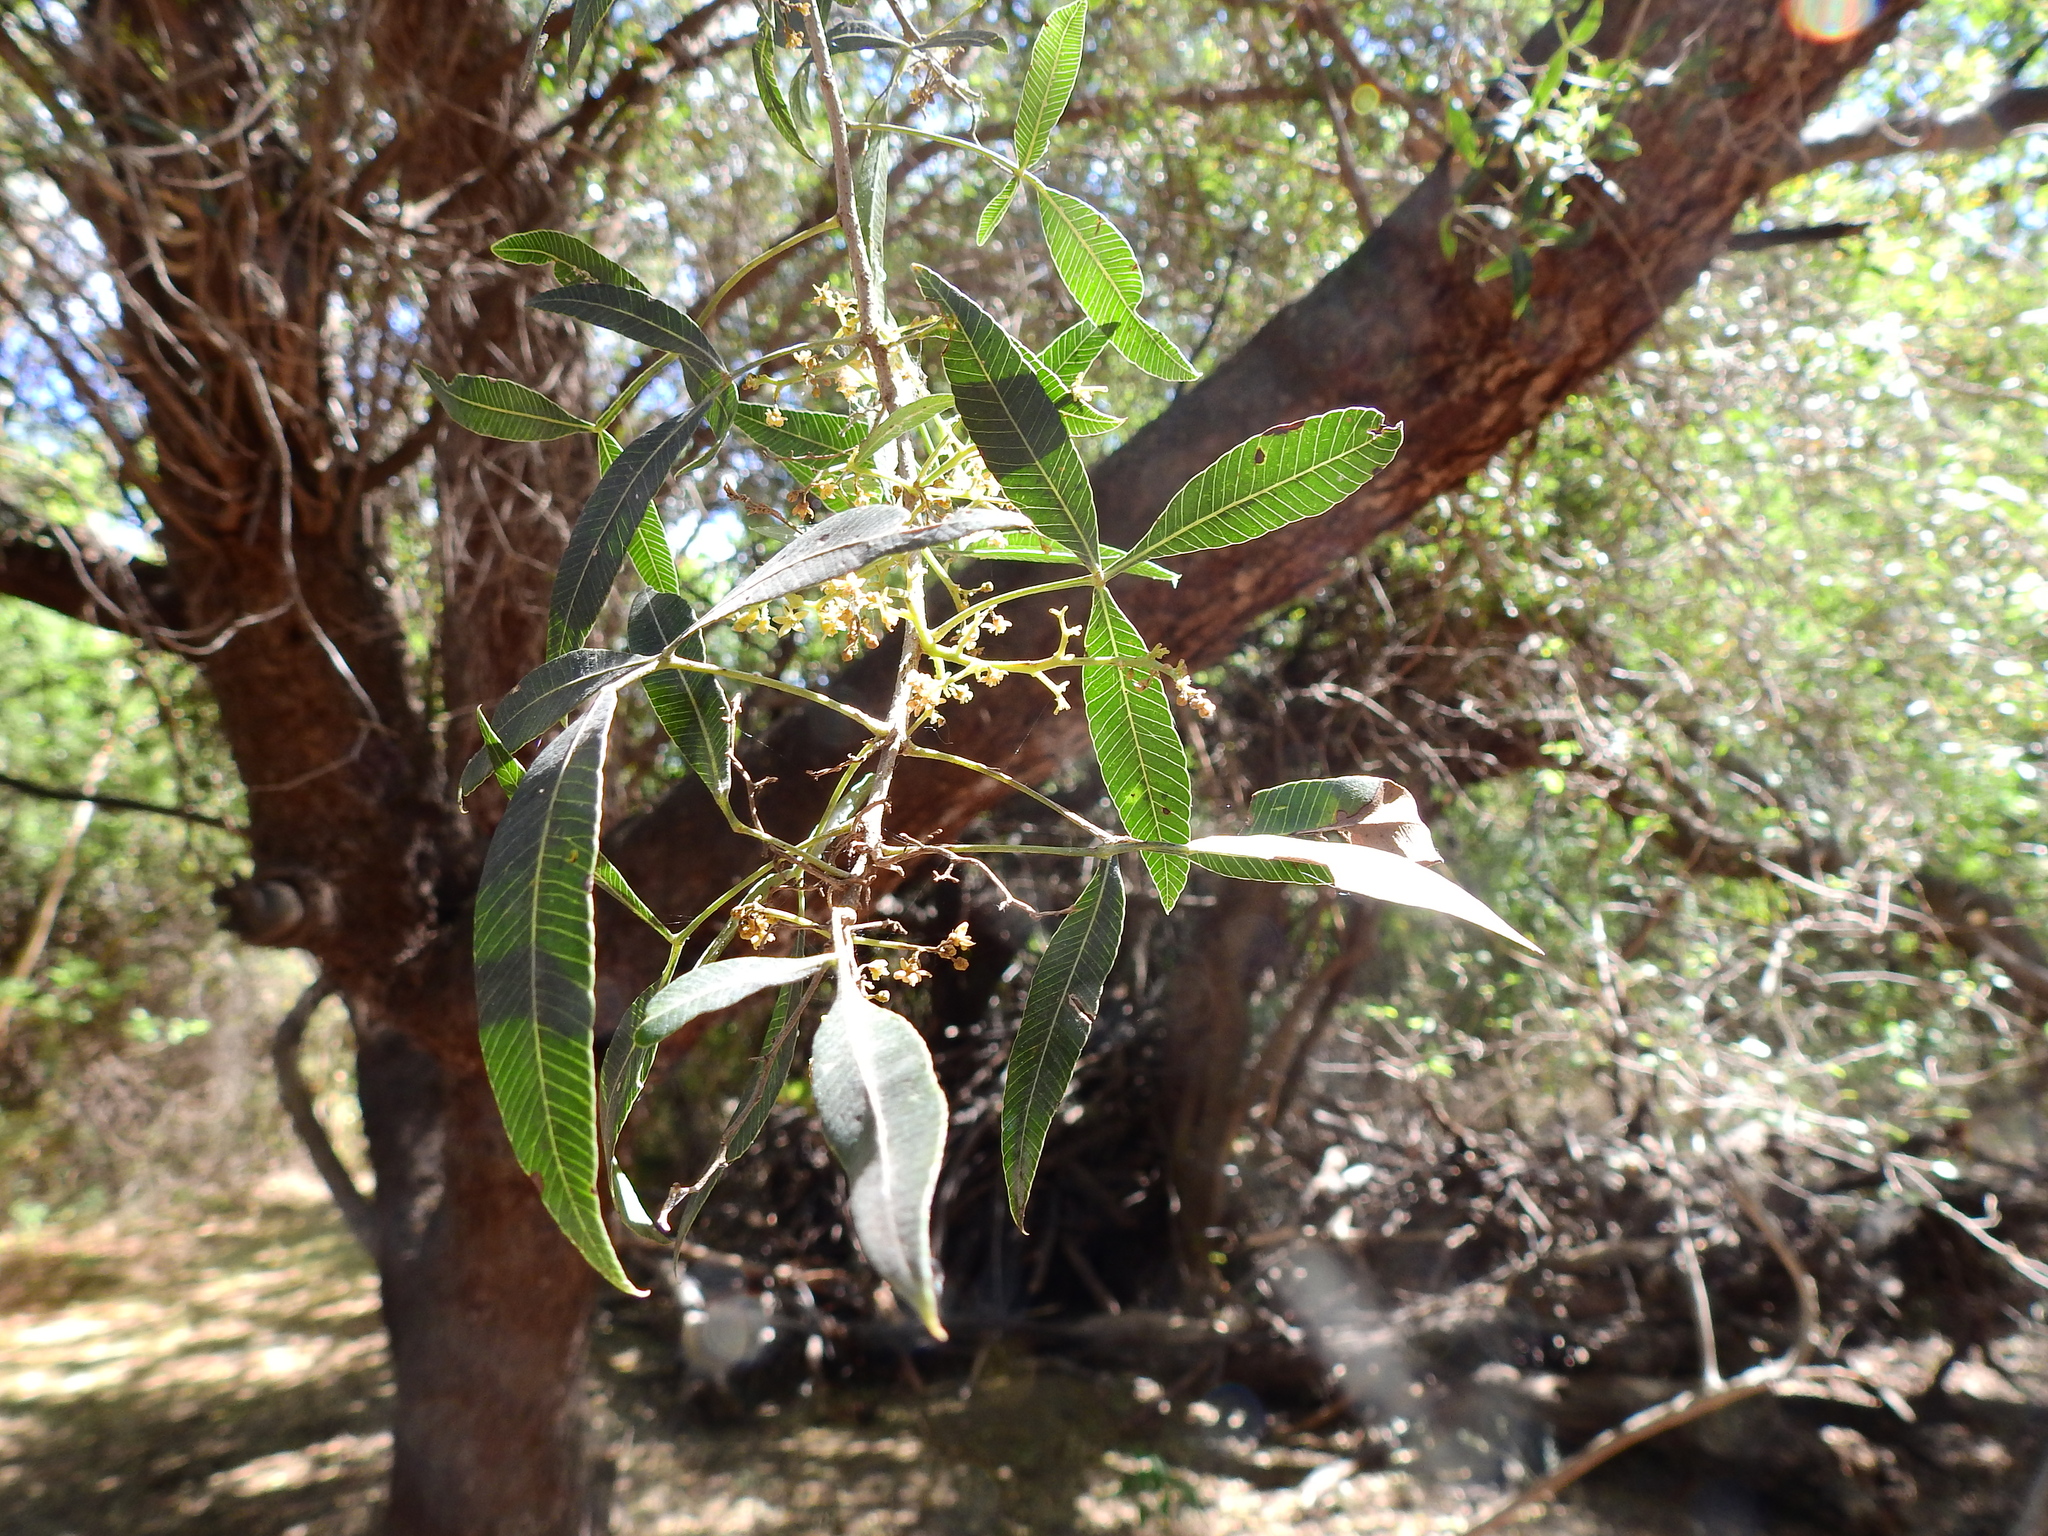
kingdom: Plantae
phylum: Tracheophyta
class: Magnoliopsida
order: Sapindales
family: Anacardiaceae
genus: Lithraea
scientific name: Lithraea molleoides
